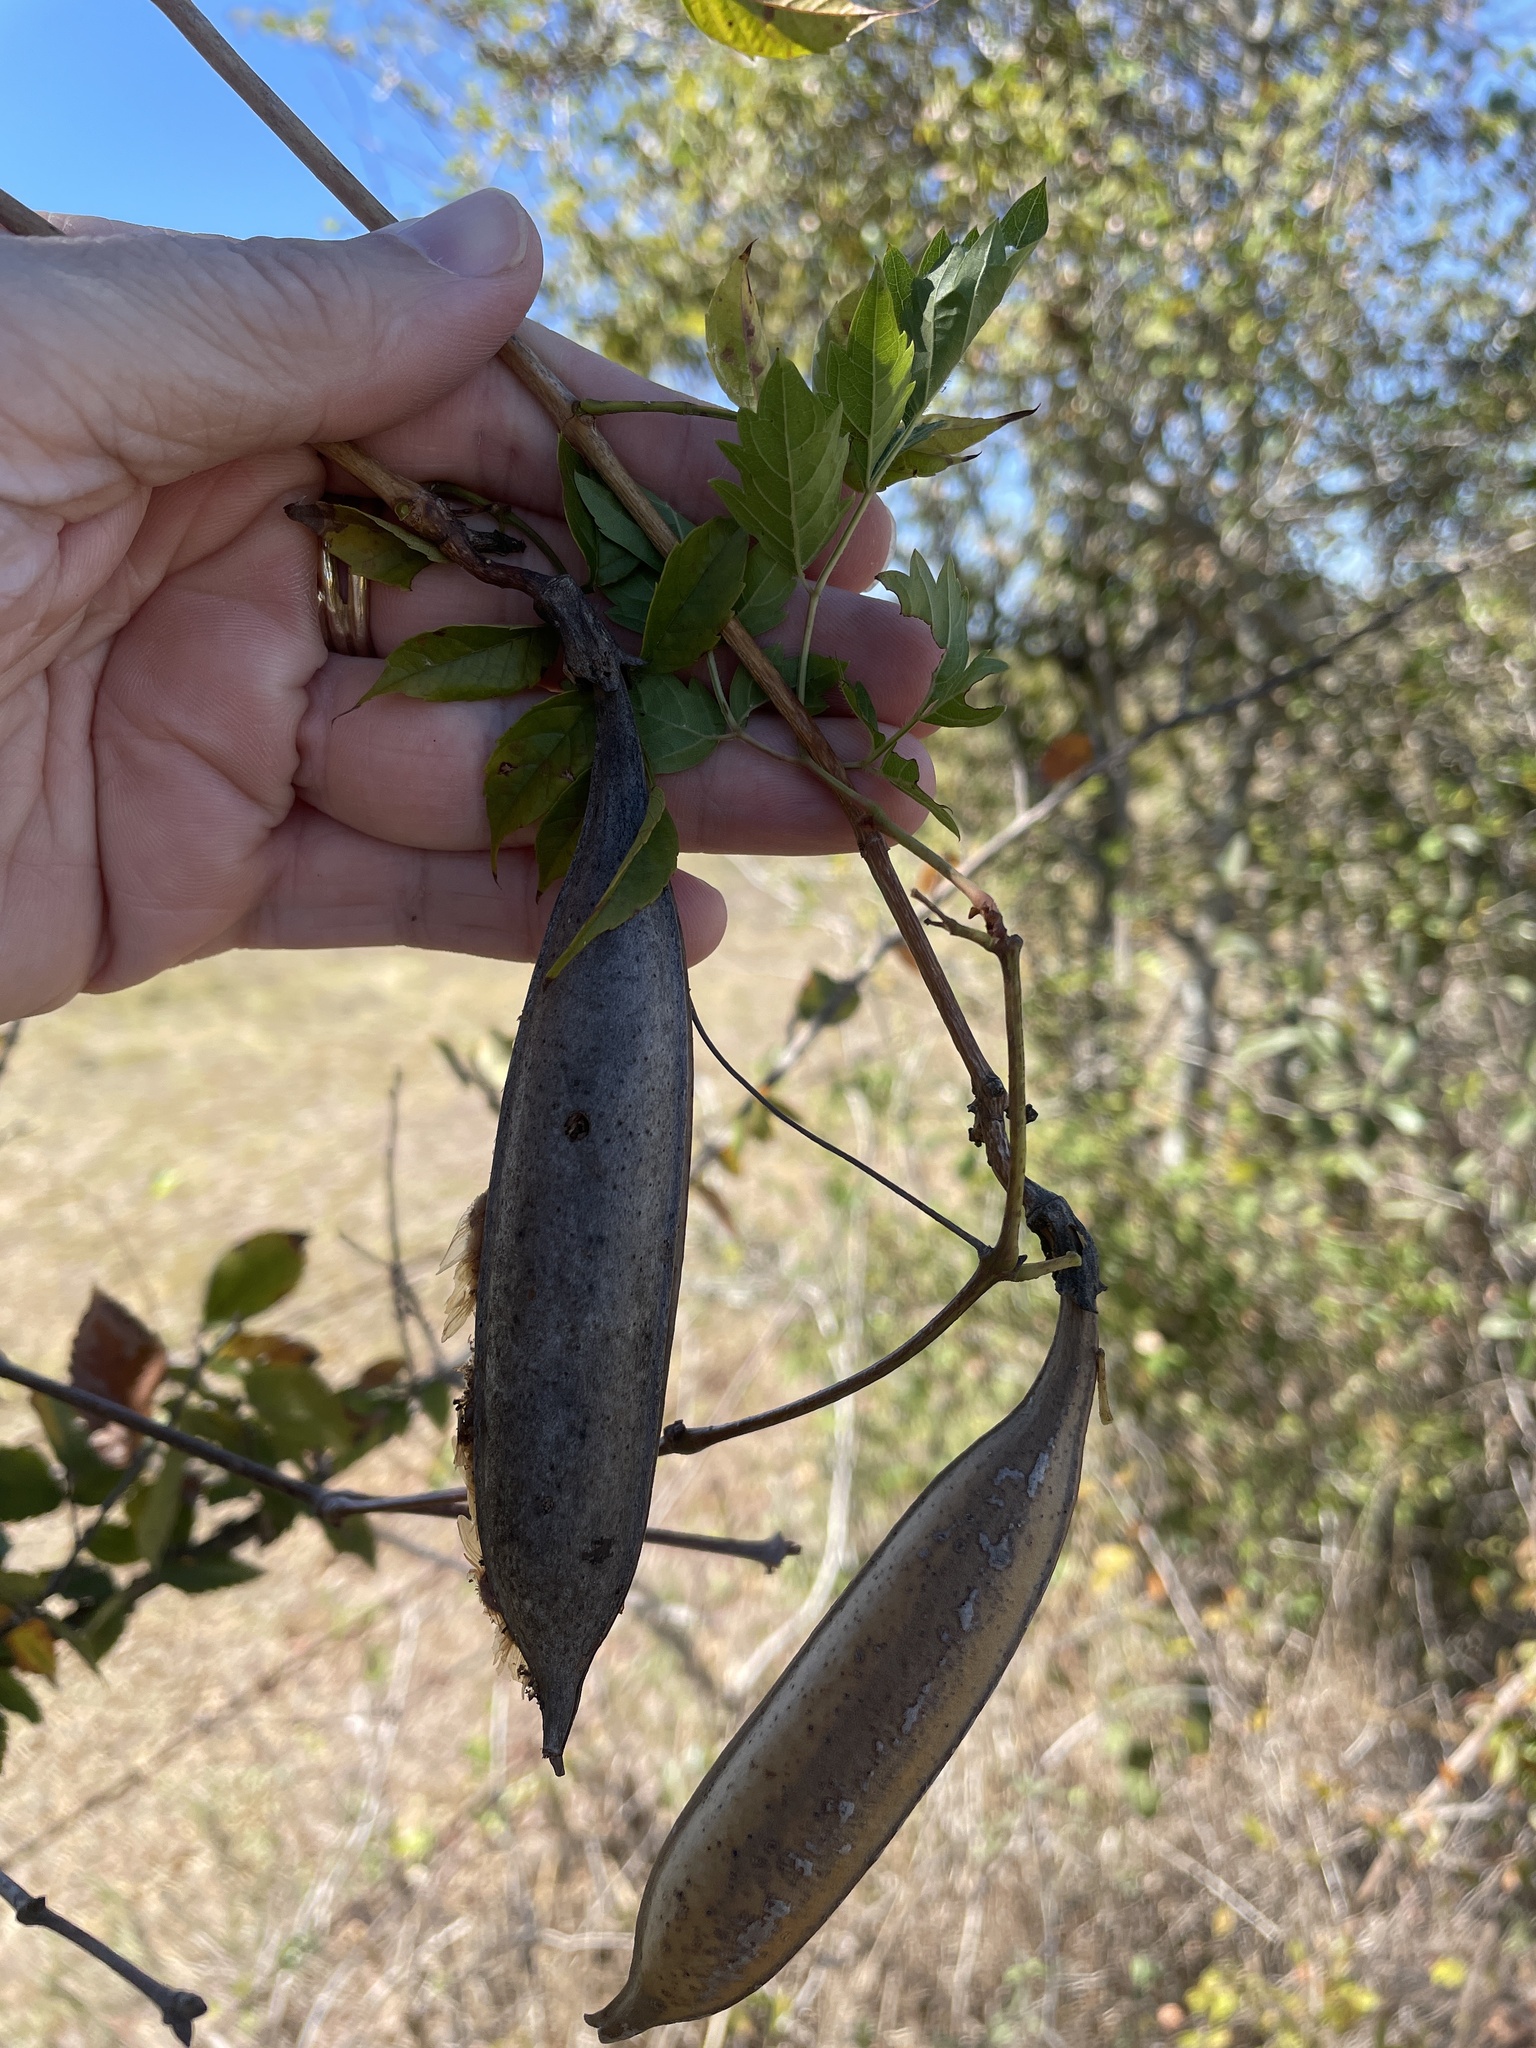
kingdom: Plantae
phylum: Tracheophyta
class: Magnoliopsida
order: Lamiales
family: Bignoniaceae
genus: Campsis
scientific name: Campsis radicans
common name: Trumpet-creeper
